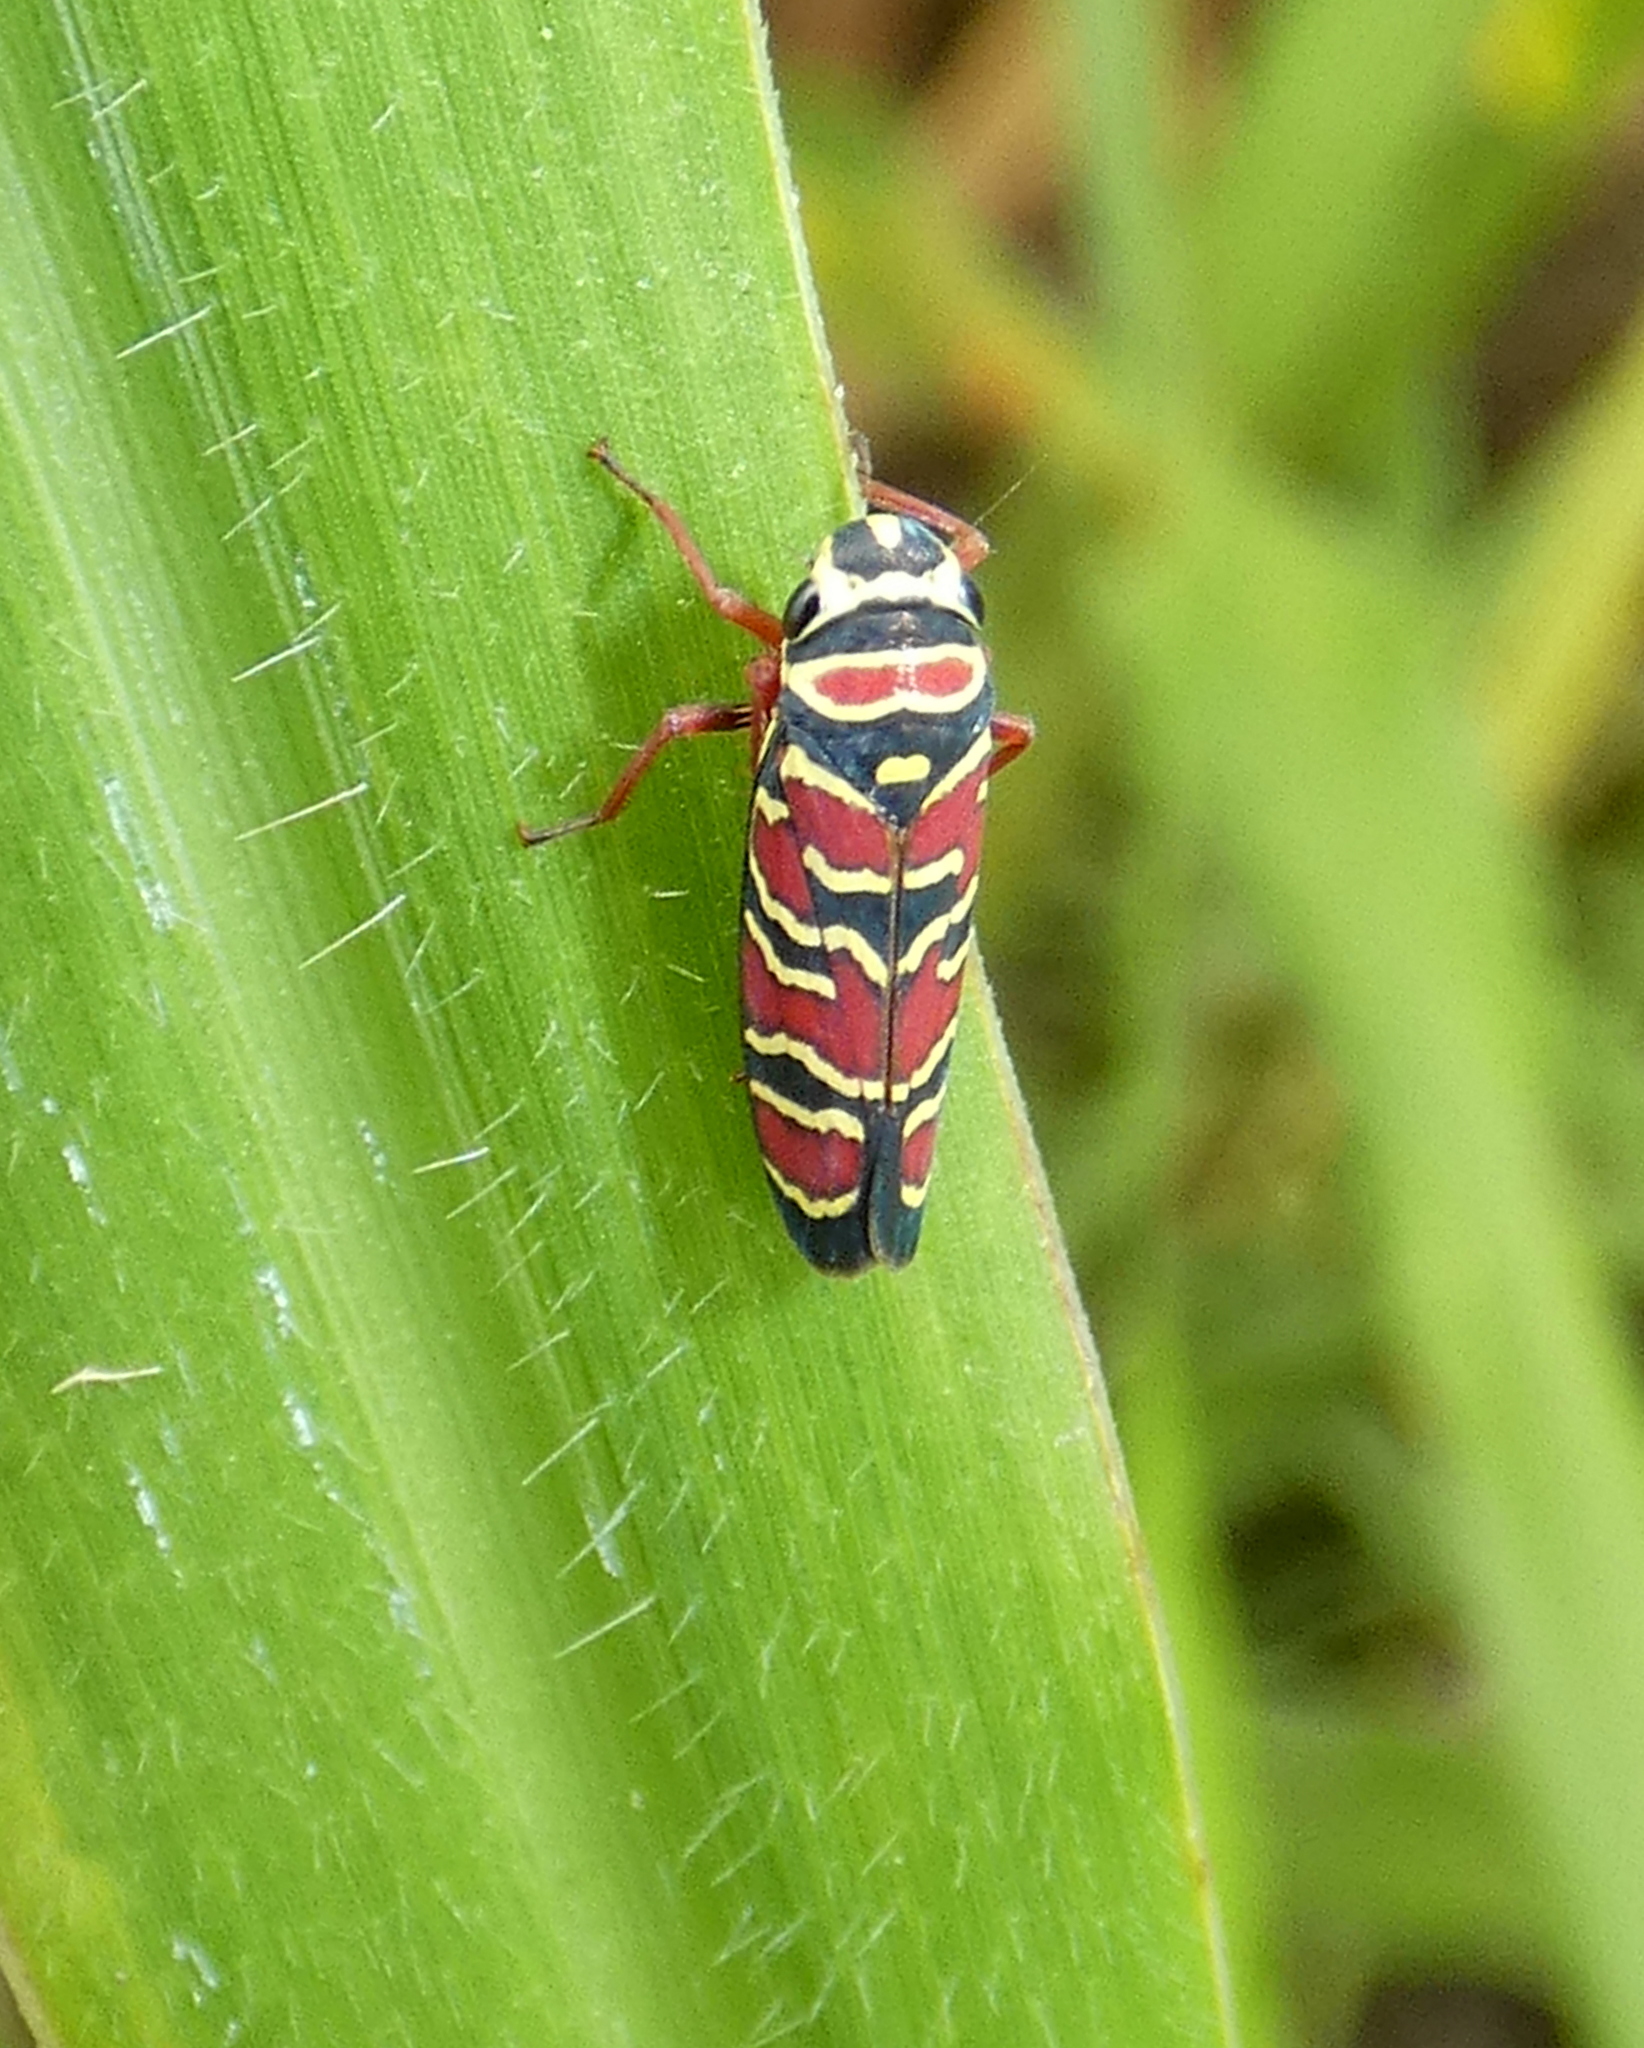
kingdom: Animalia
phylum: Arthropoda
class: Insecta
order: Hemiptera
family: Cicadellidae
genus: Agrosoma
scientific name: Agrosoma placetis
